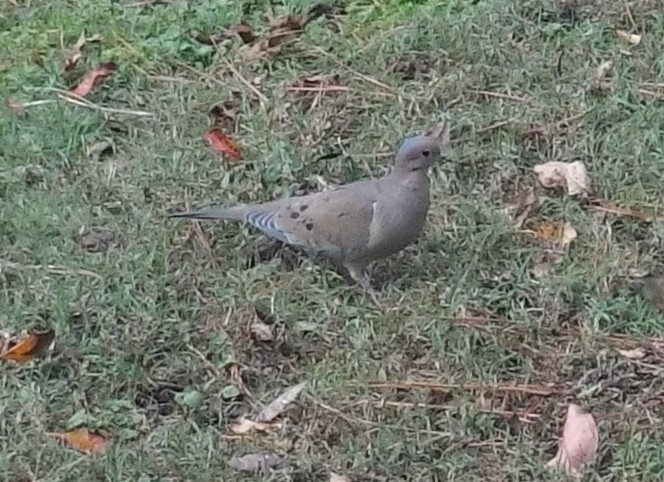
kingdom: Animalia
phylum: Chordata
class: Aves
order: Columbiformes
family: Columbidae
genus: Zenaida
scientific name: Zenaida macroura
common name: Mourning dove
